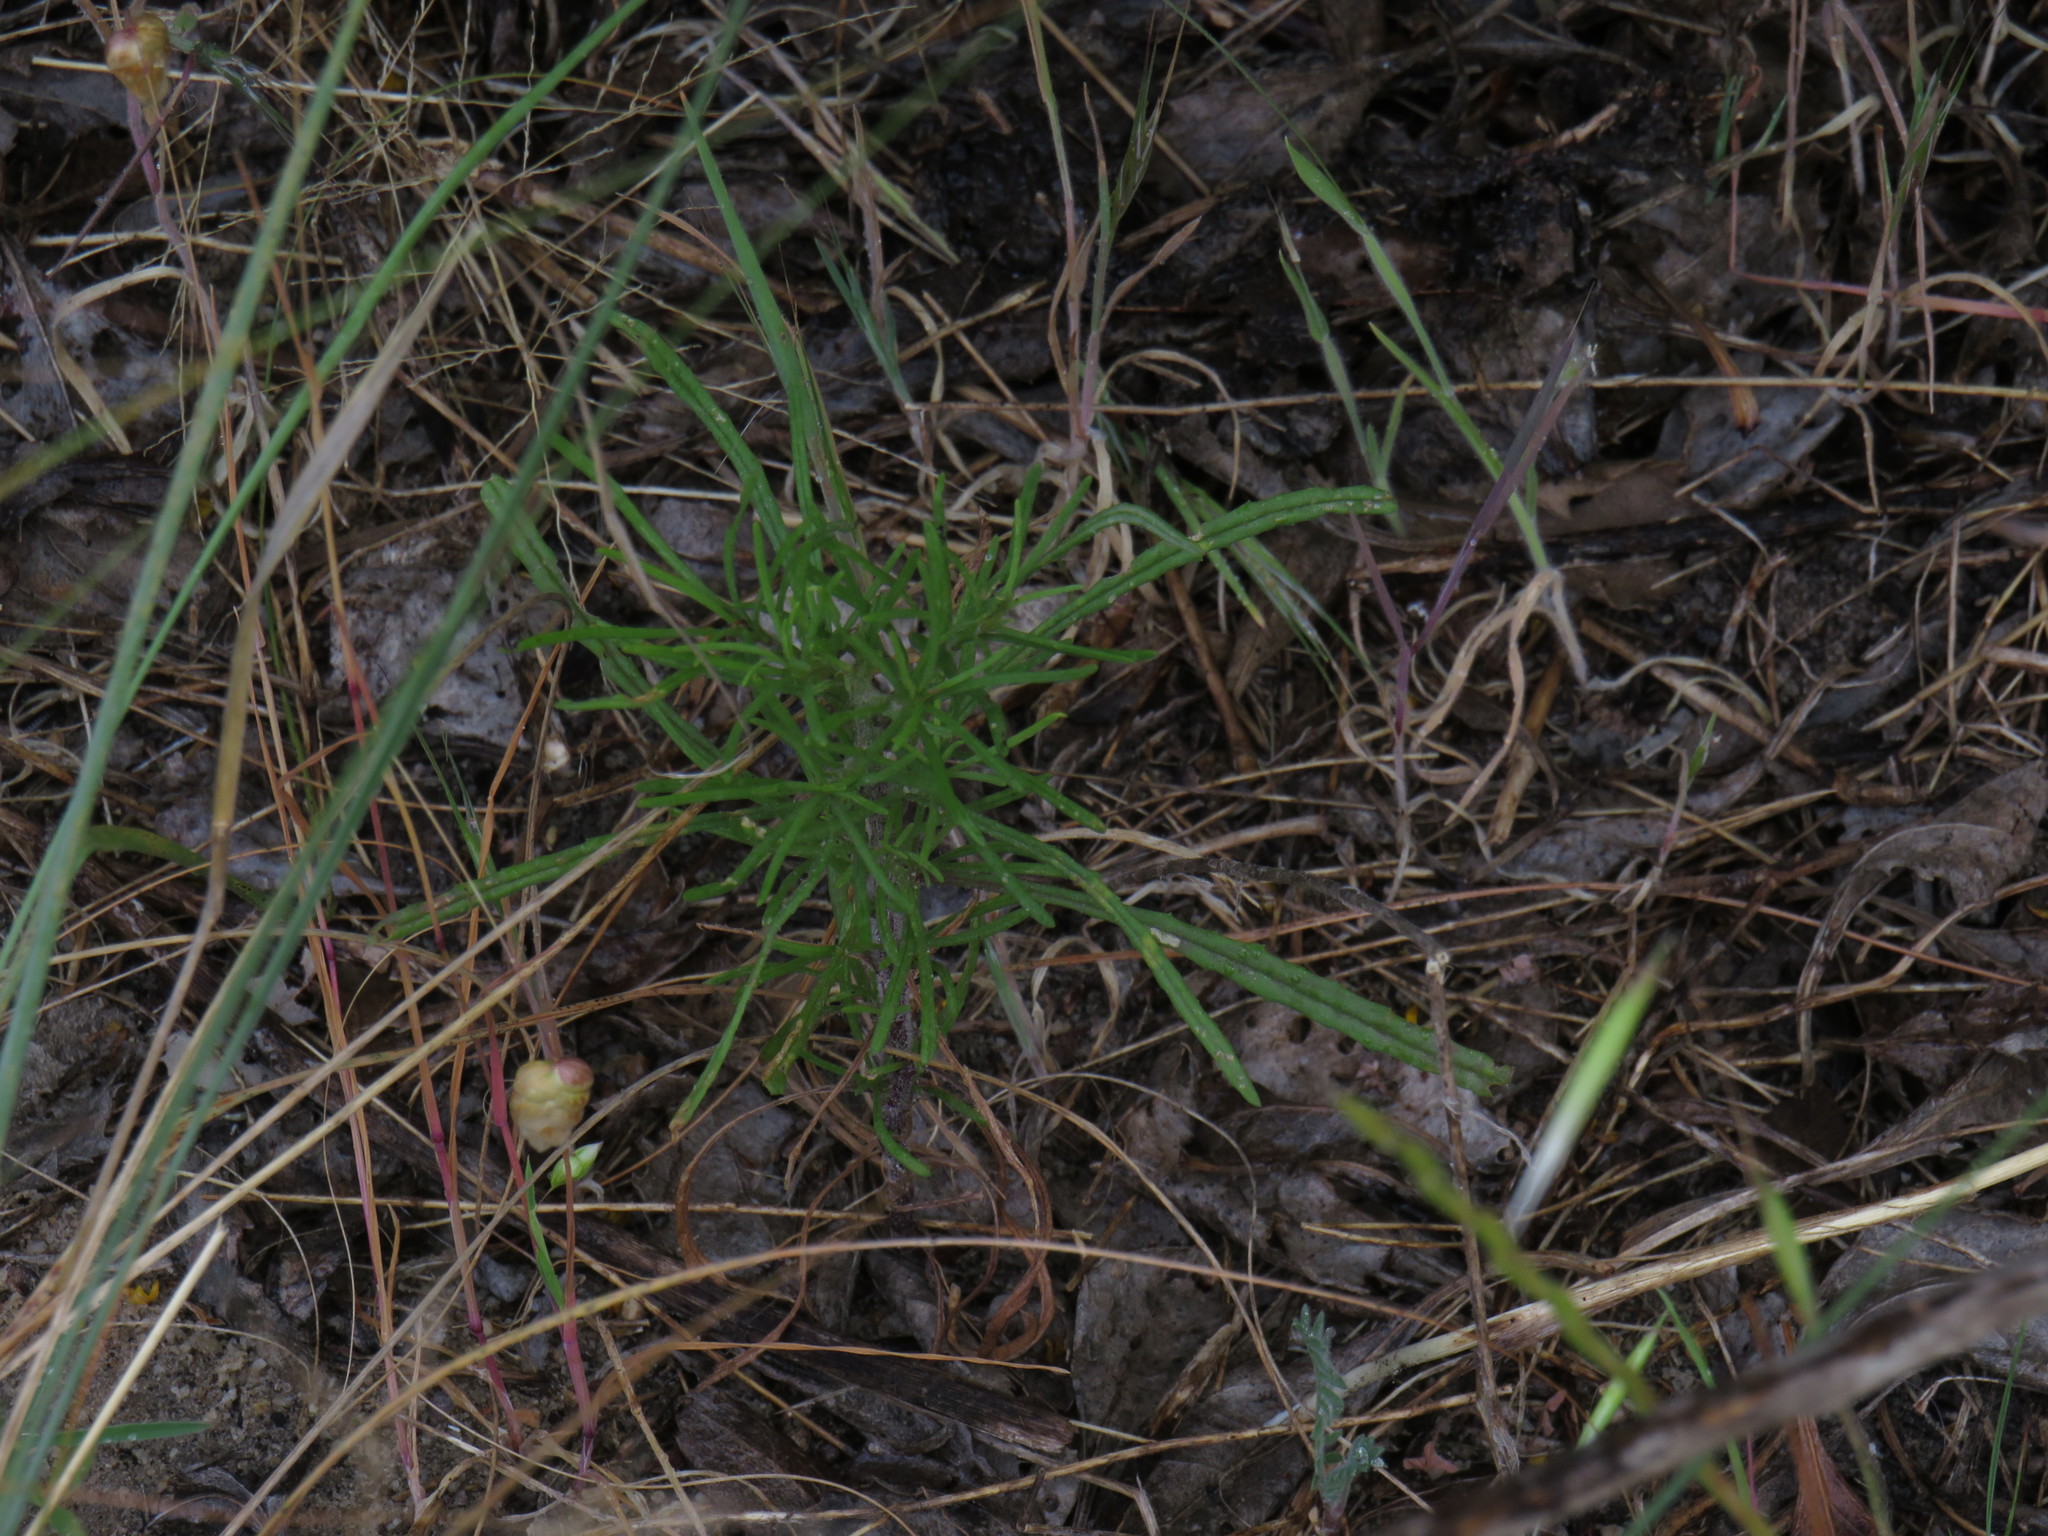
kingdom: Plantae
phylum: Tracheophyta
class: Magnoliopsida
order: Asterales
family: Asteraceae
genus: Senecio
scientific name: Senecio burchellii
